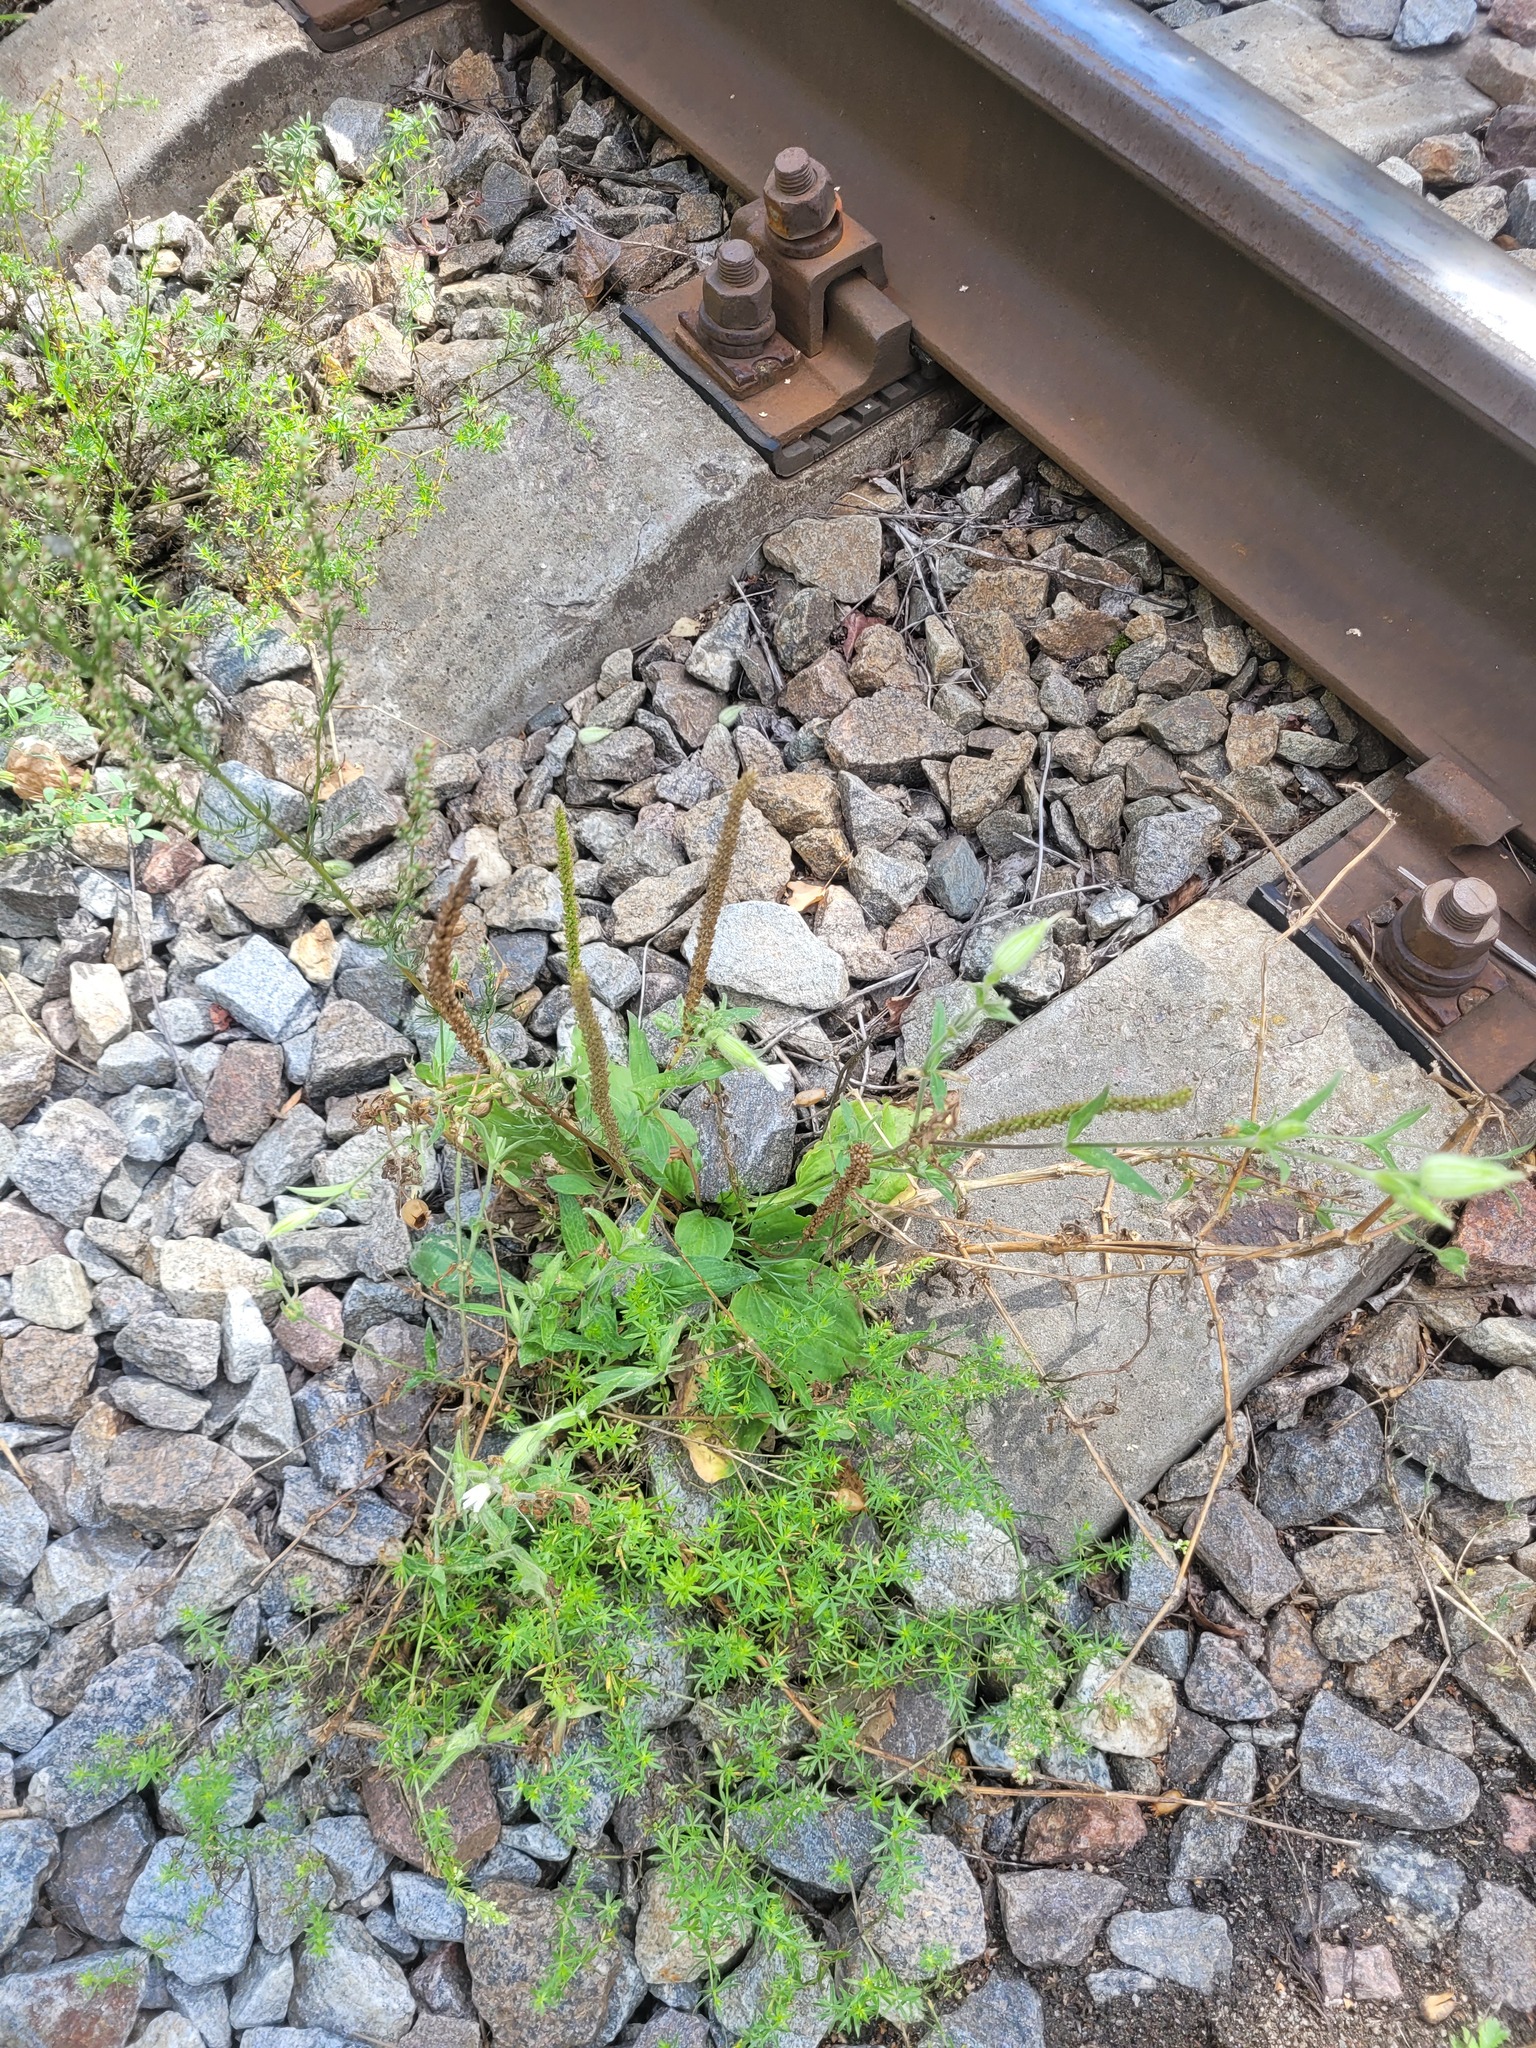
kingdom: Plantae
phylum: Tracheophyta
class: Magnoliopsida
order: Lamiales
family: Plantaginaceae
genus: Plantago
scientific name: Plantago major
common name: Common plantain
